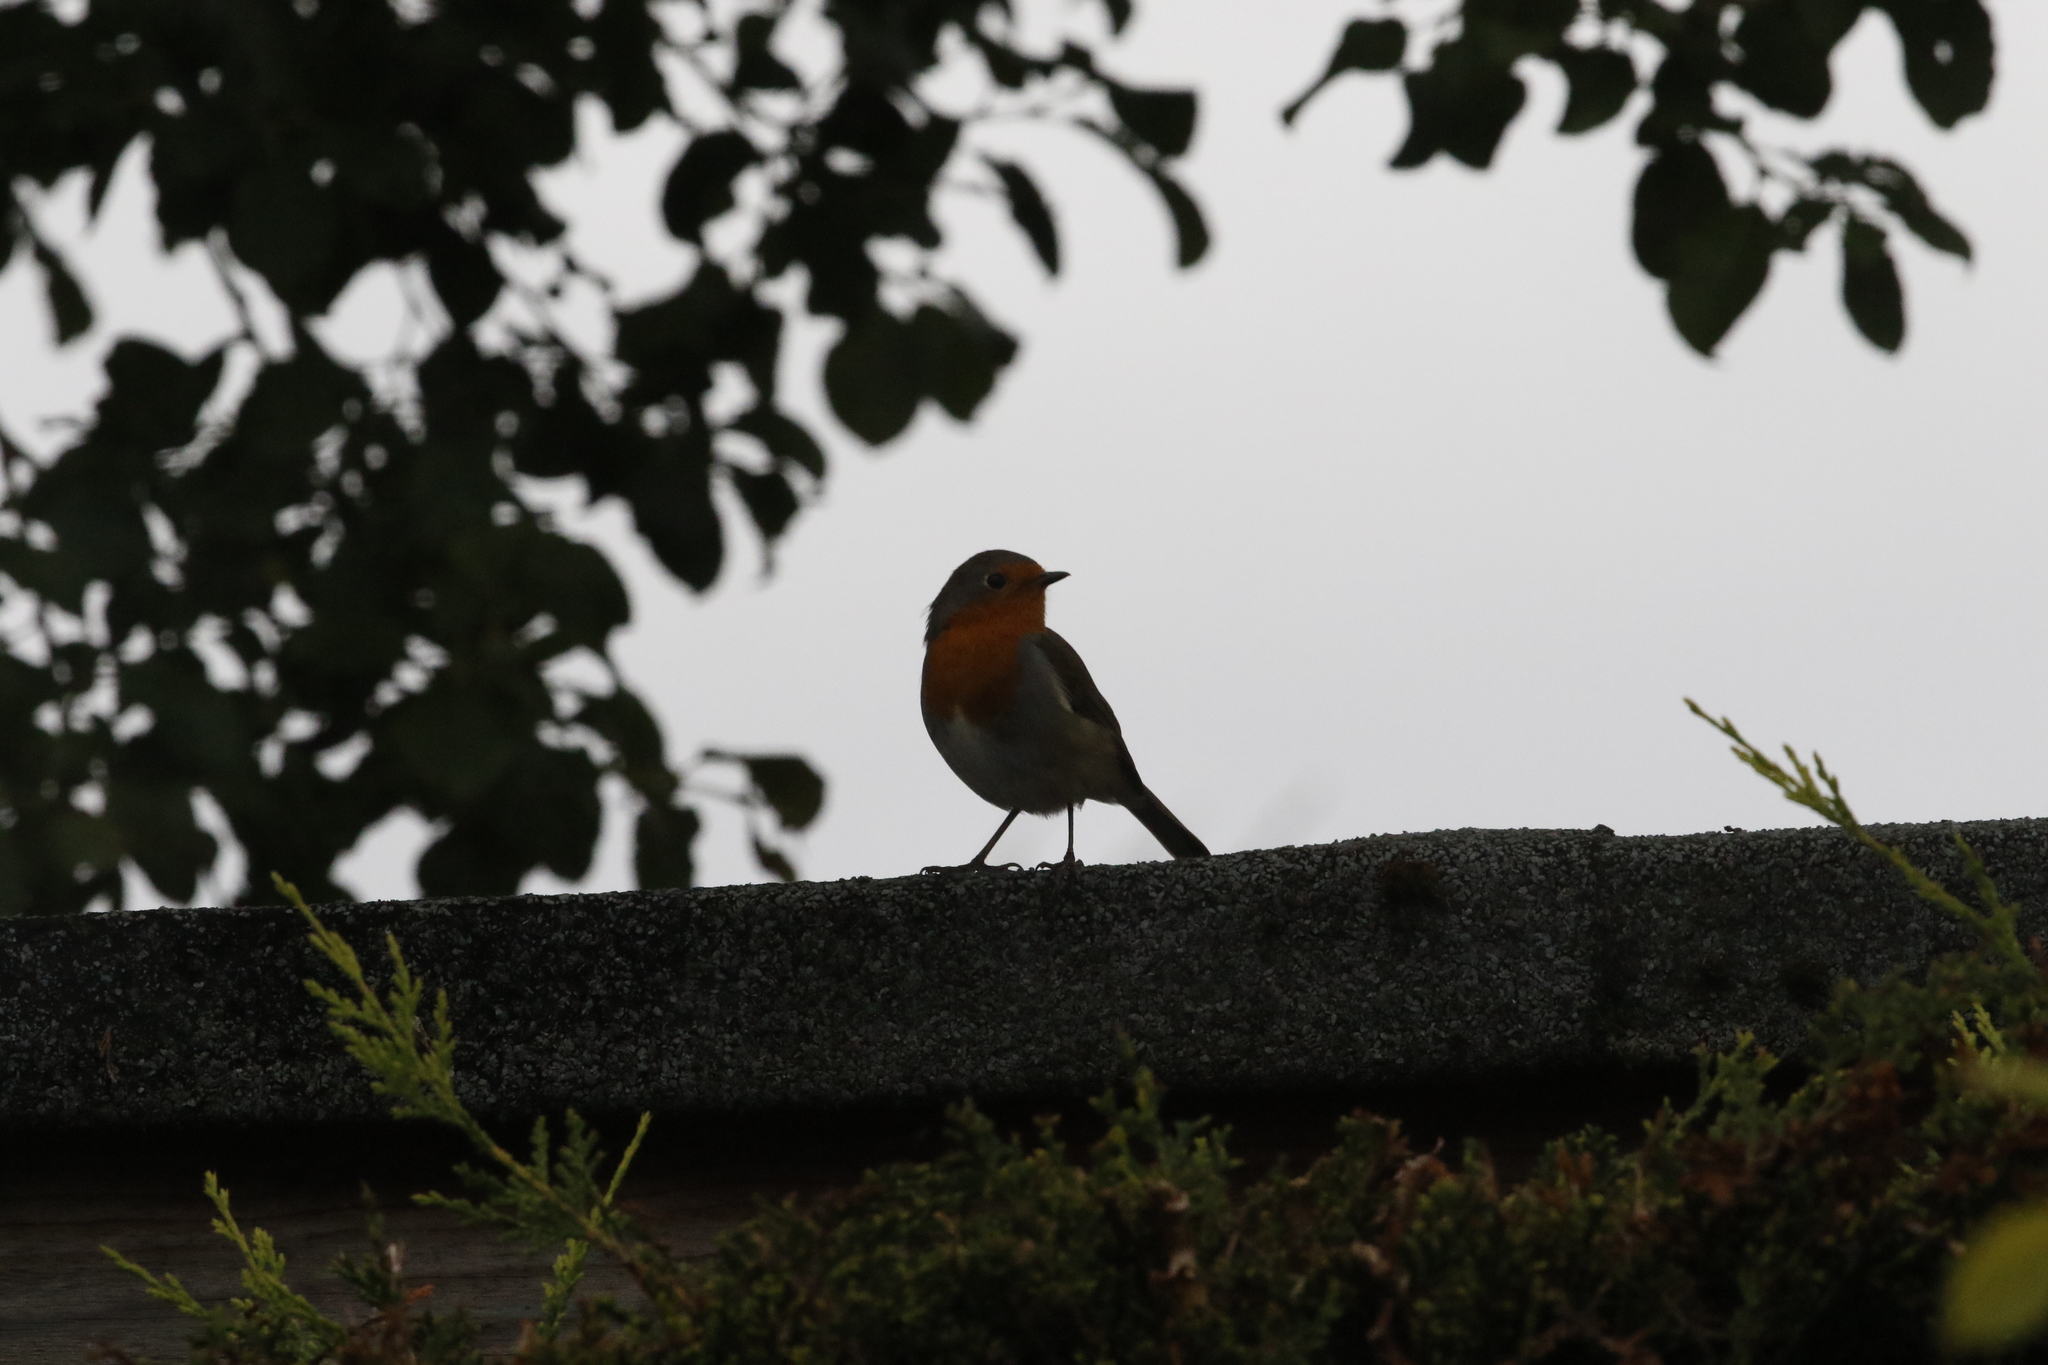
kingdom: Animalia
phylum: Chordata
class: Aves
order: Passeriformes
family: Muscicapidae
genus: Erithacus
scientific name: Erithacus rubecula
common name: European robin
